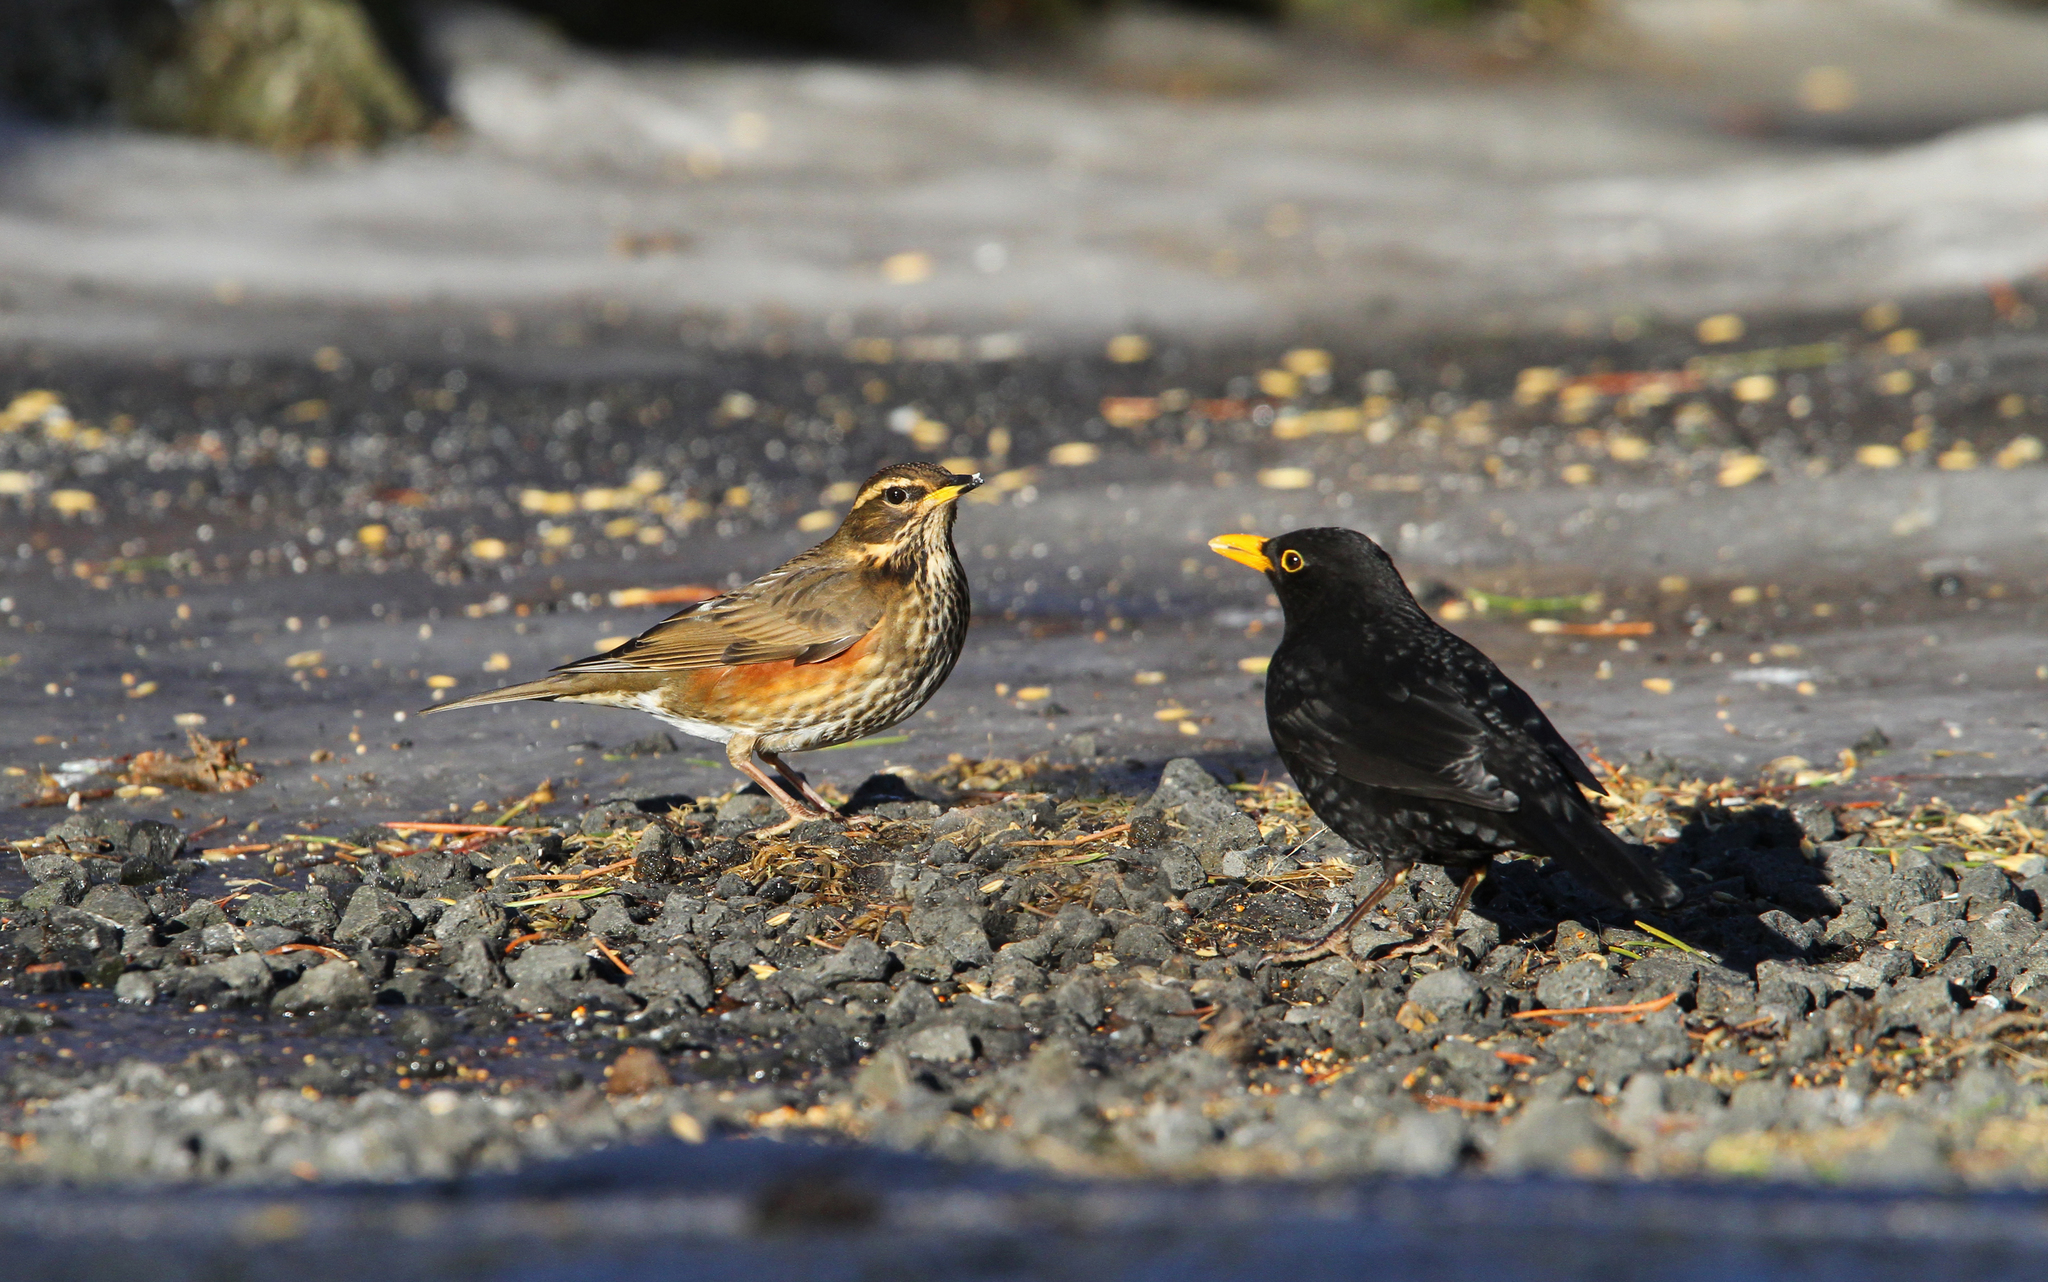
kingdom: Animalia
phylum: Chordata
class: Aves
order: Passeriformes
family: Turdidae
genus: Turdus
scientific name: Turdus iliacus
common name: Redwing
